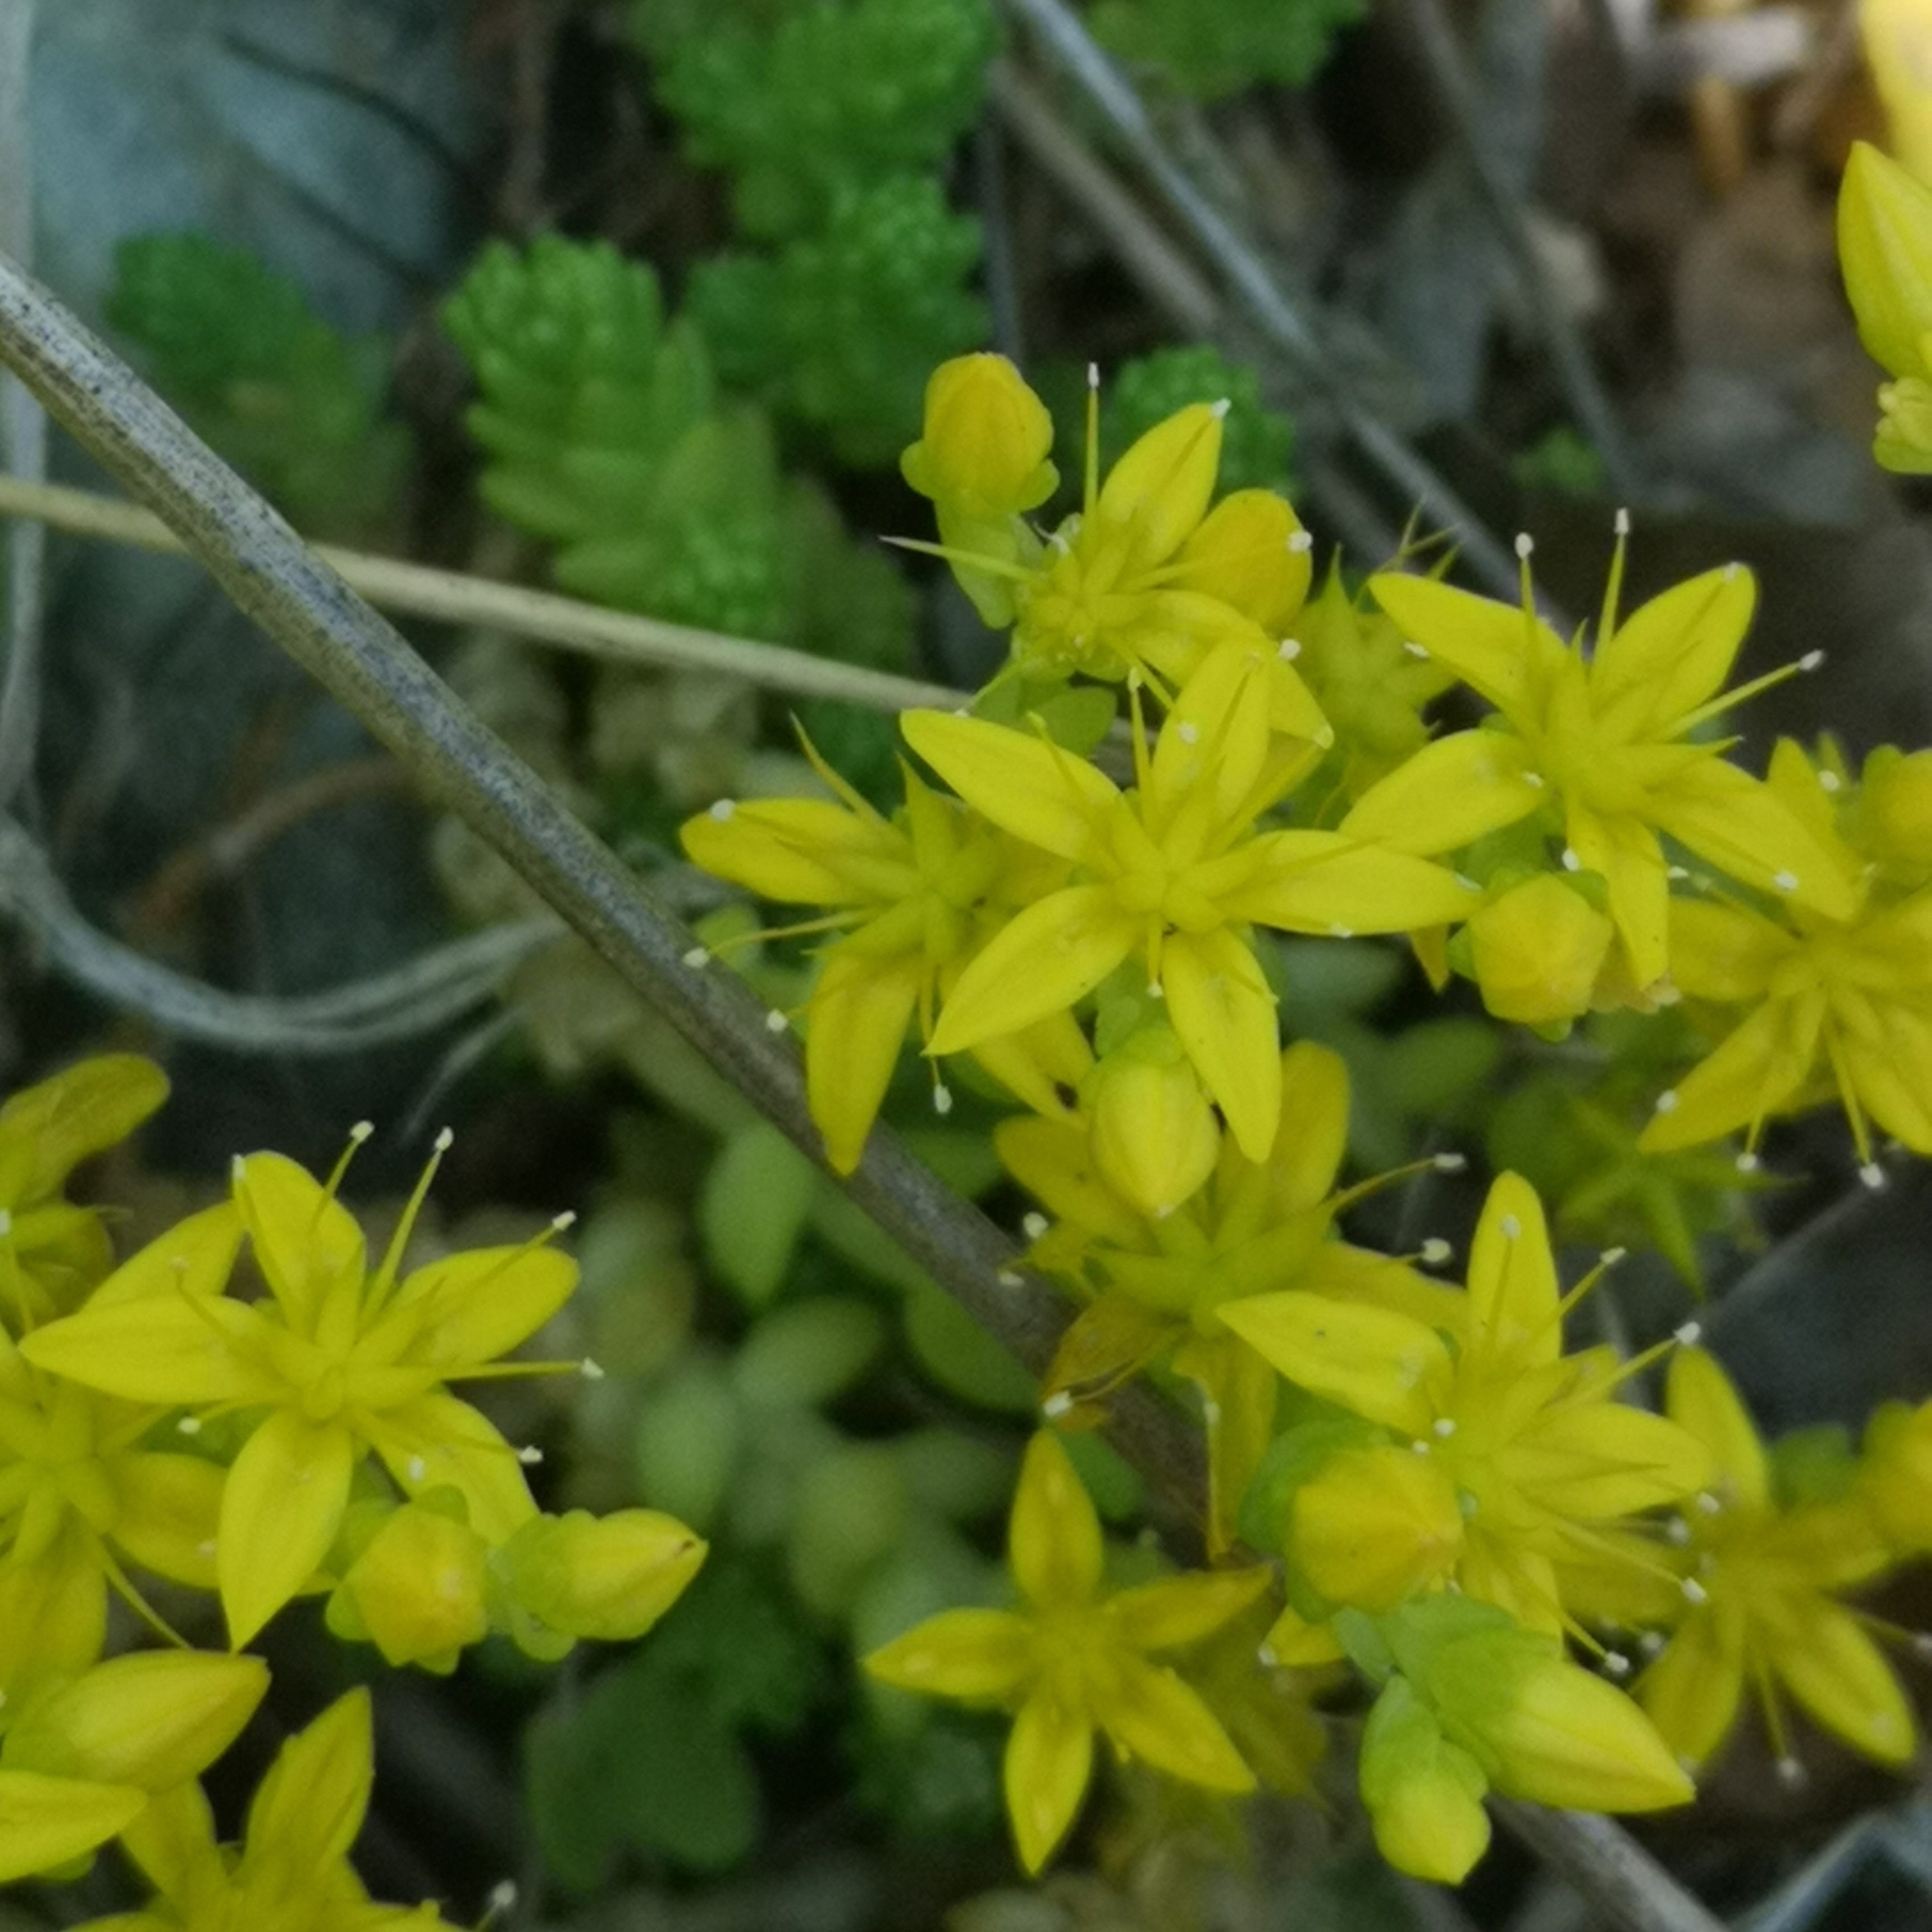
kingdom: Plantae
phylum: Tracheophyta
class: Magnoliopsida
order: Saxifragales
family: Crassulaceae
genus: Sedum
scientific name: Sedum acre
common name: Biting stonecrop
